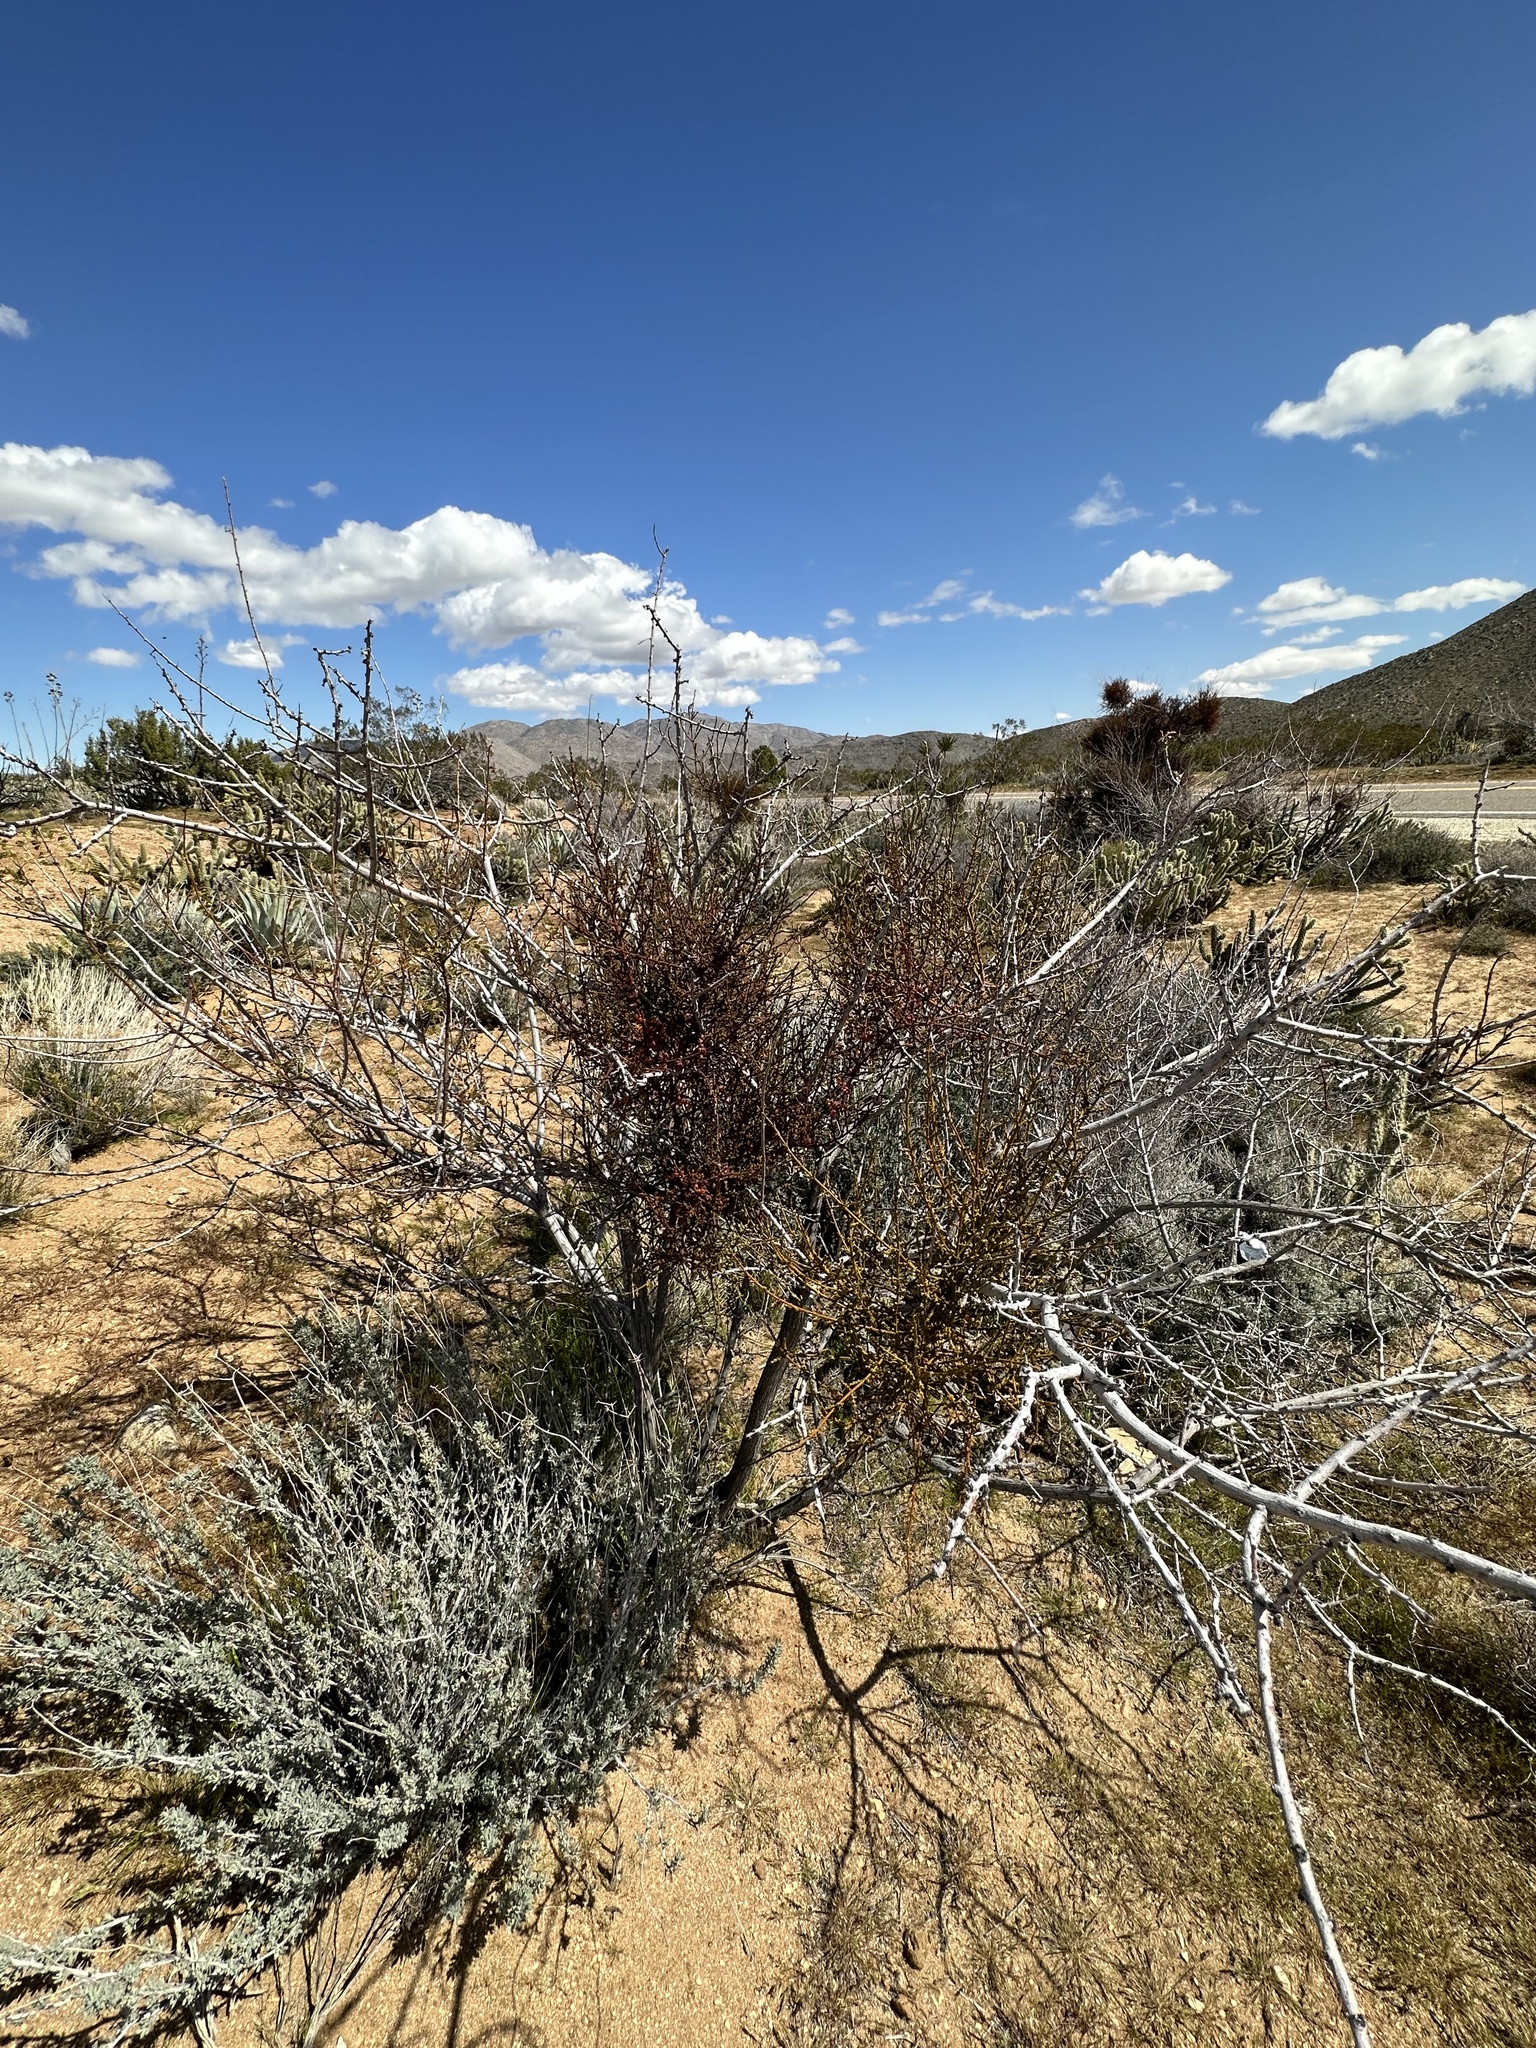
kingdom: Plantae
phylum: Tracheophyta
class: Magnoliopsida
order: Santalales
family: Viscaceae
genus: Phoradendron
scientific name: Phoradendron californicum
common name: Acacia mistletoe
